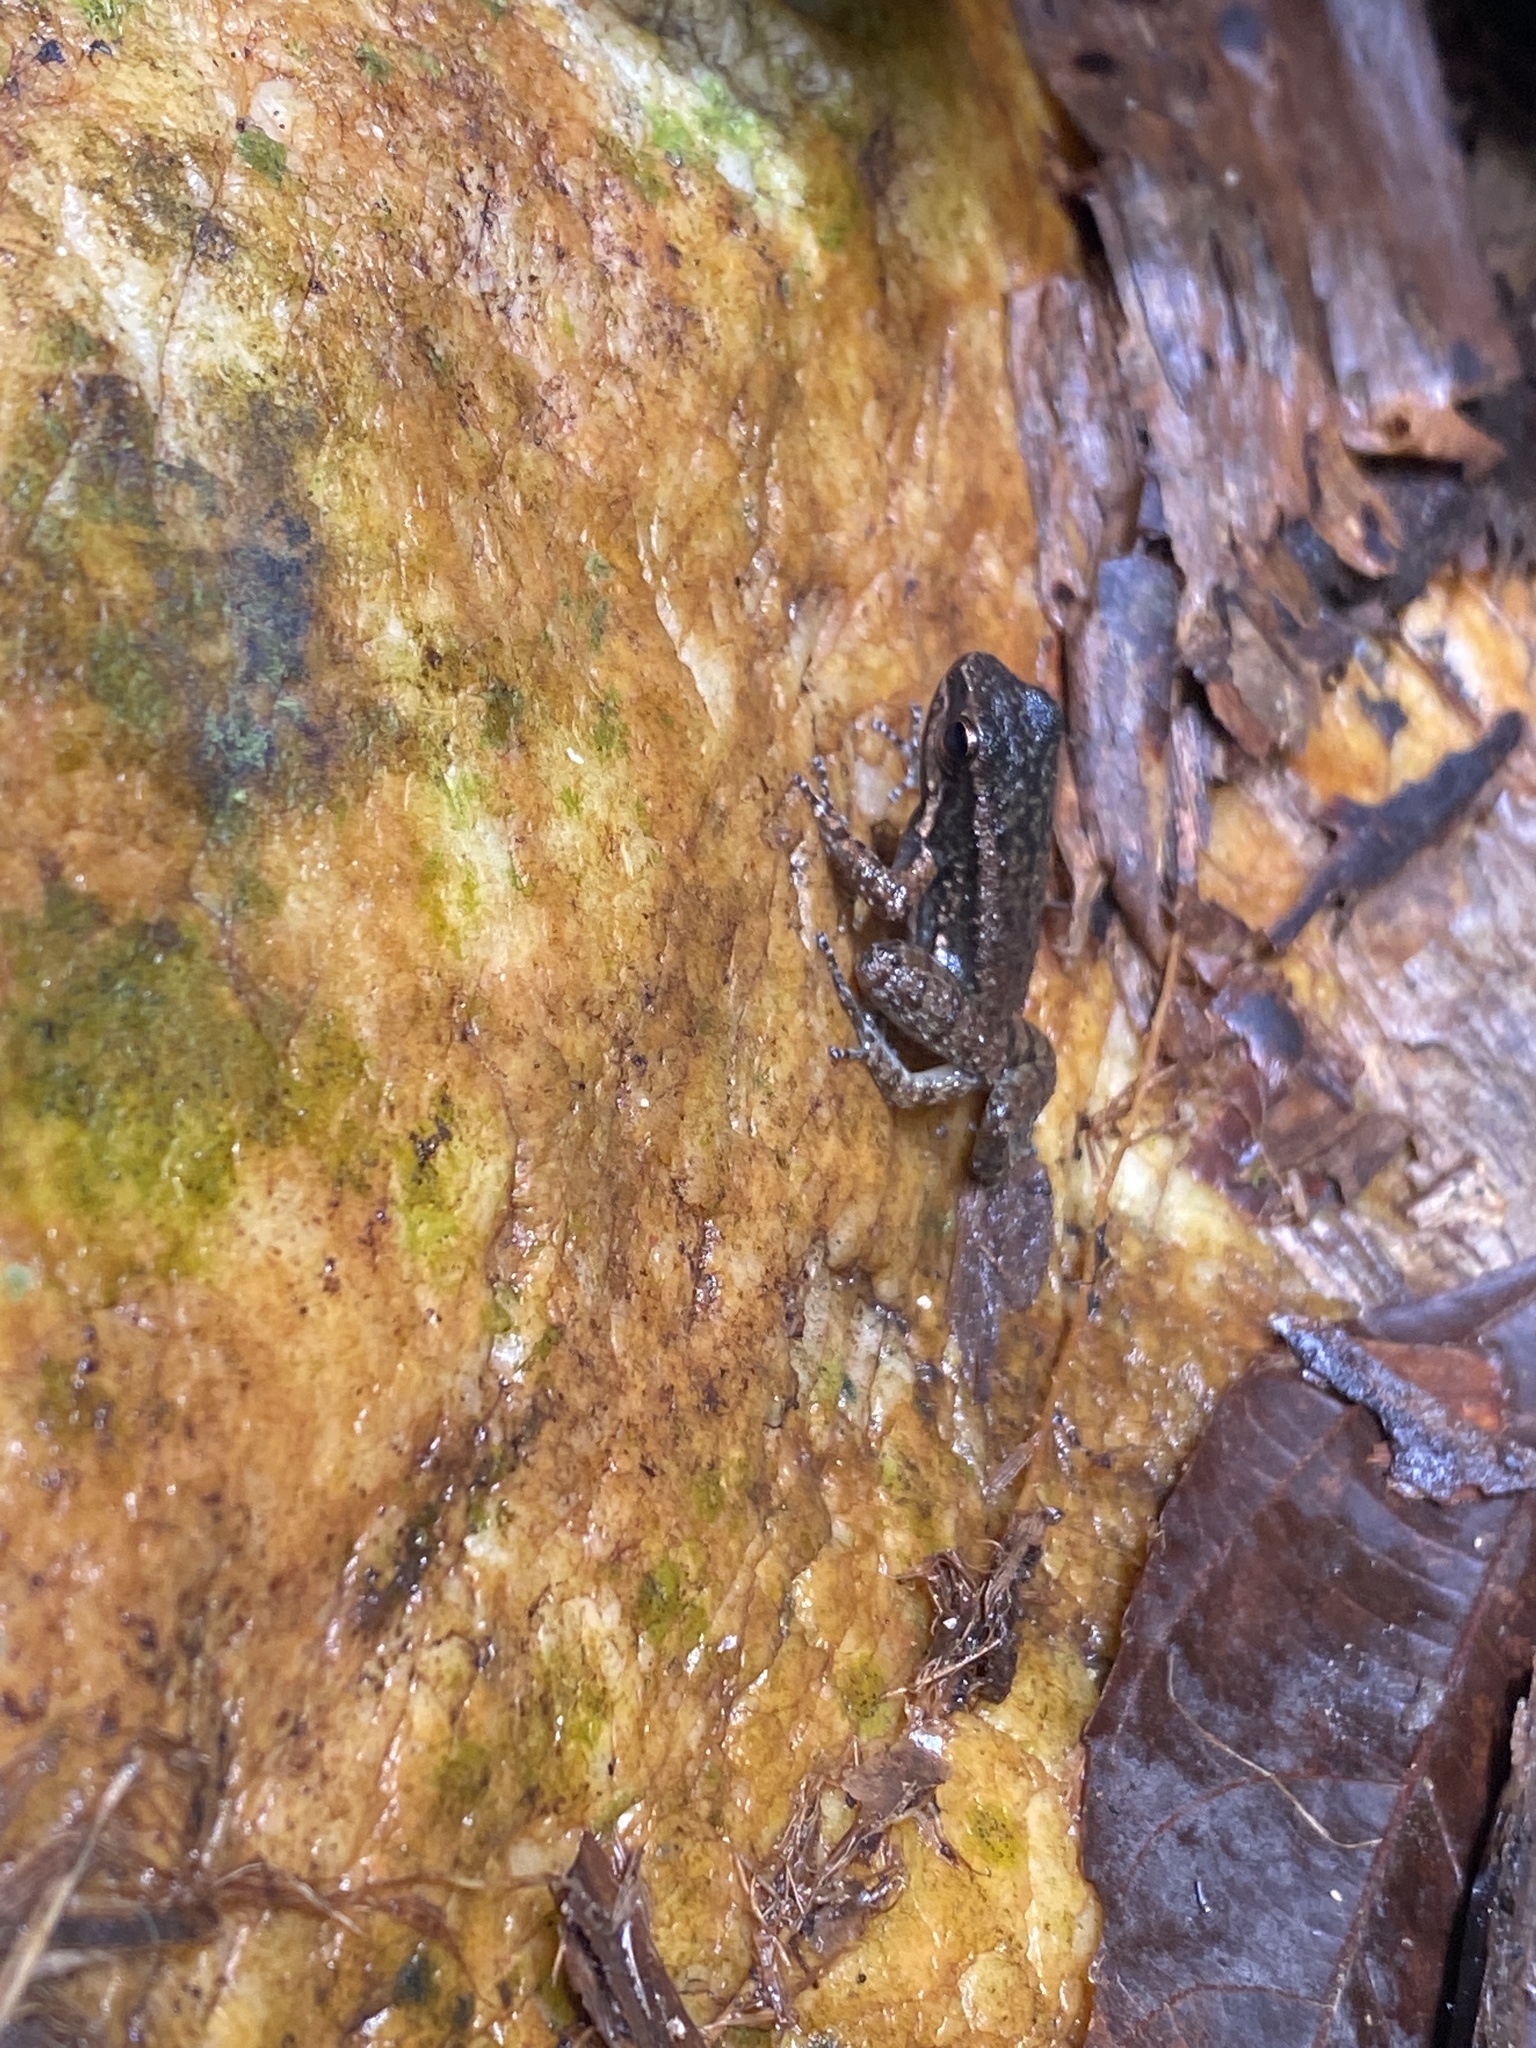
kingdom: Animalia
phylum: Chordata
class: Amphibia
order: Anura
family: Aromobatidae
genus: Mannophryne
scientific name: Mannophryne trinitatis
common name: Trinidad poison frog
